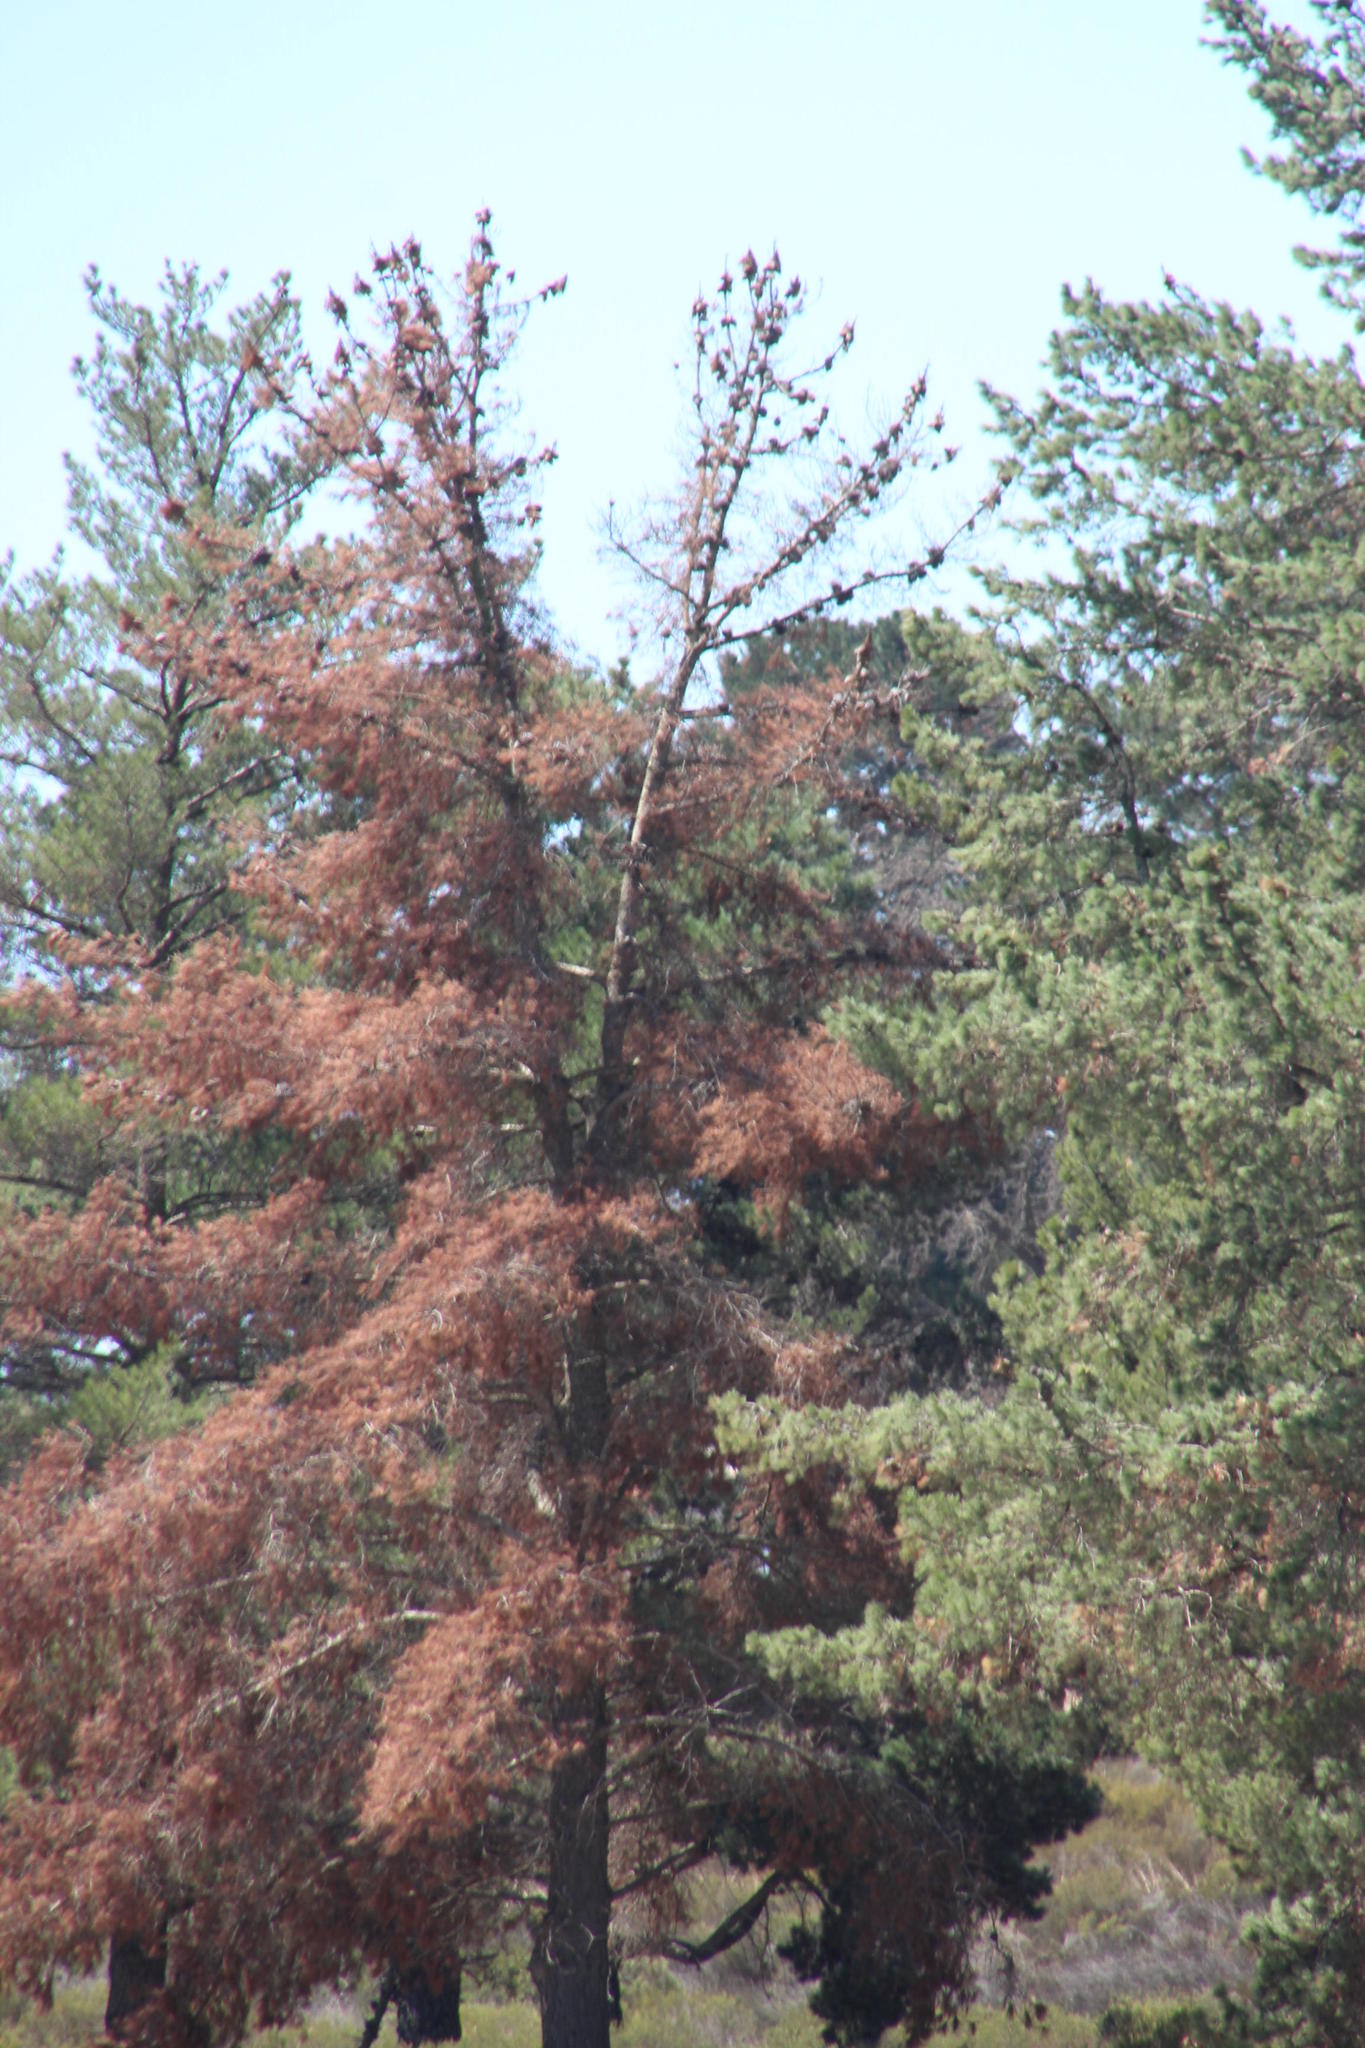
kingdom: Plantae
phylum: Tracheophyta
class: Pinopsida
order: Pinales
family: Pinaceae
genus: Pinus
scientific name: Pinus radiata
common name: Monterey pine
